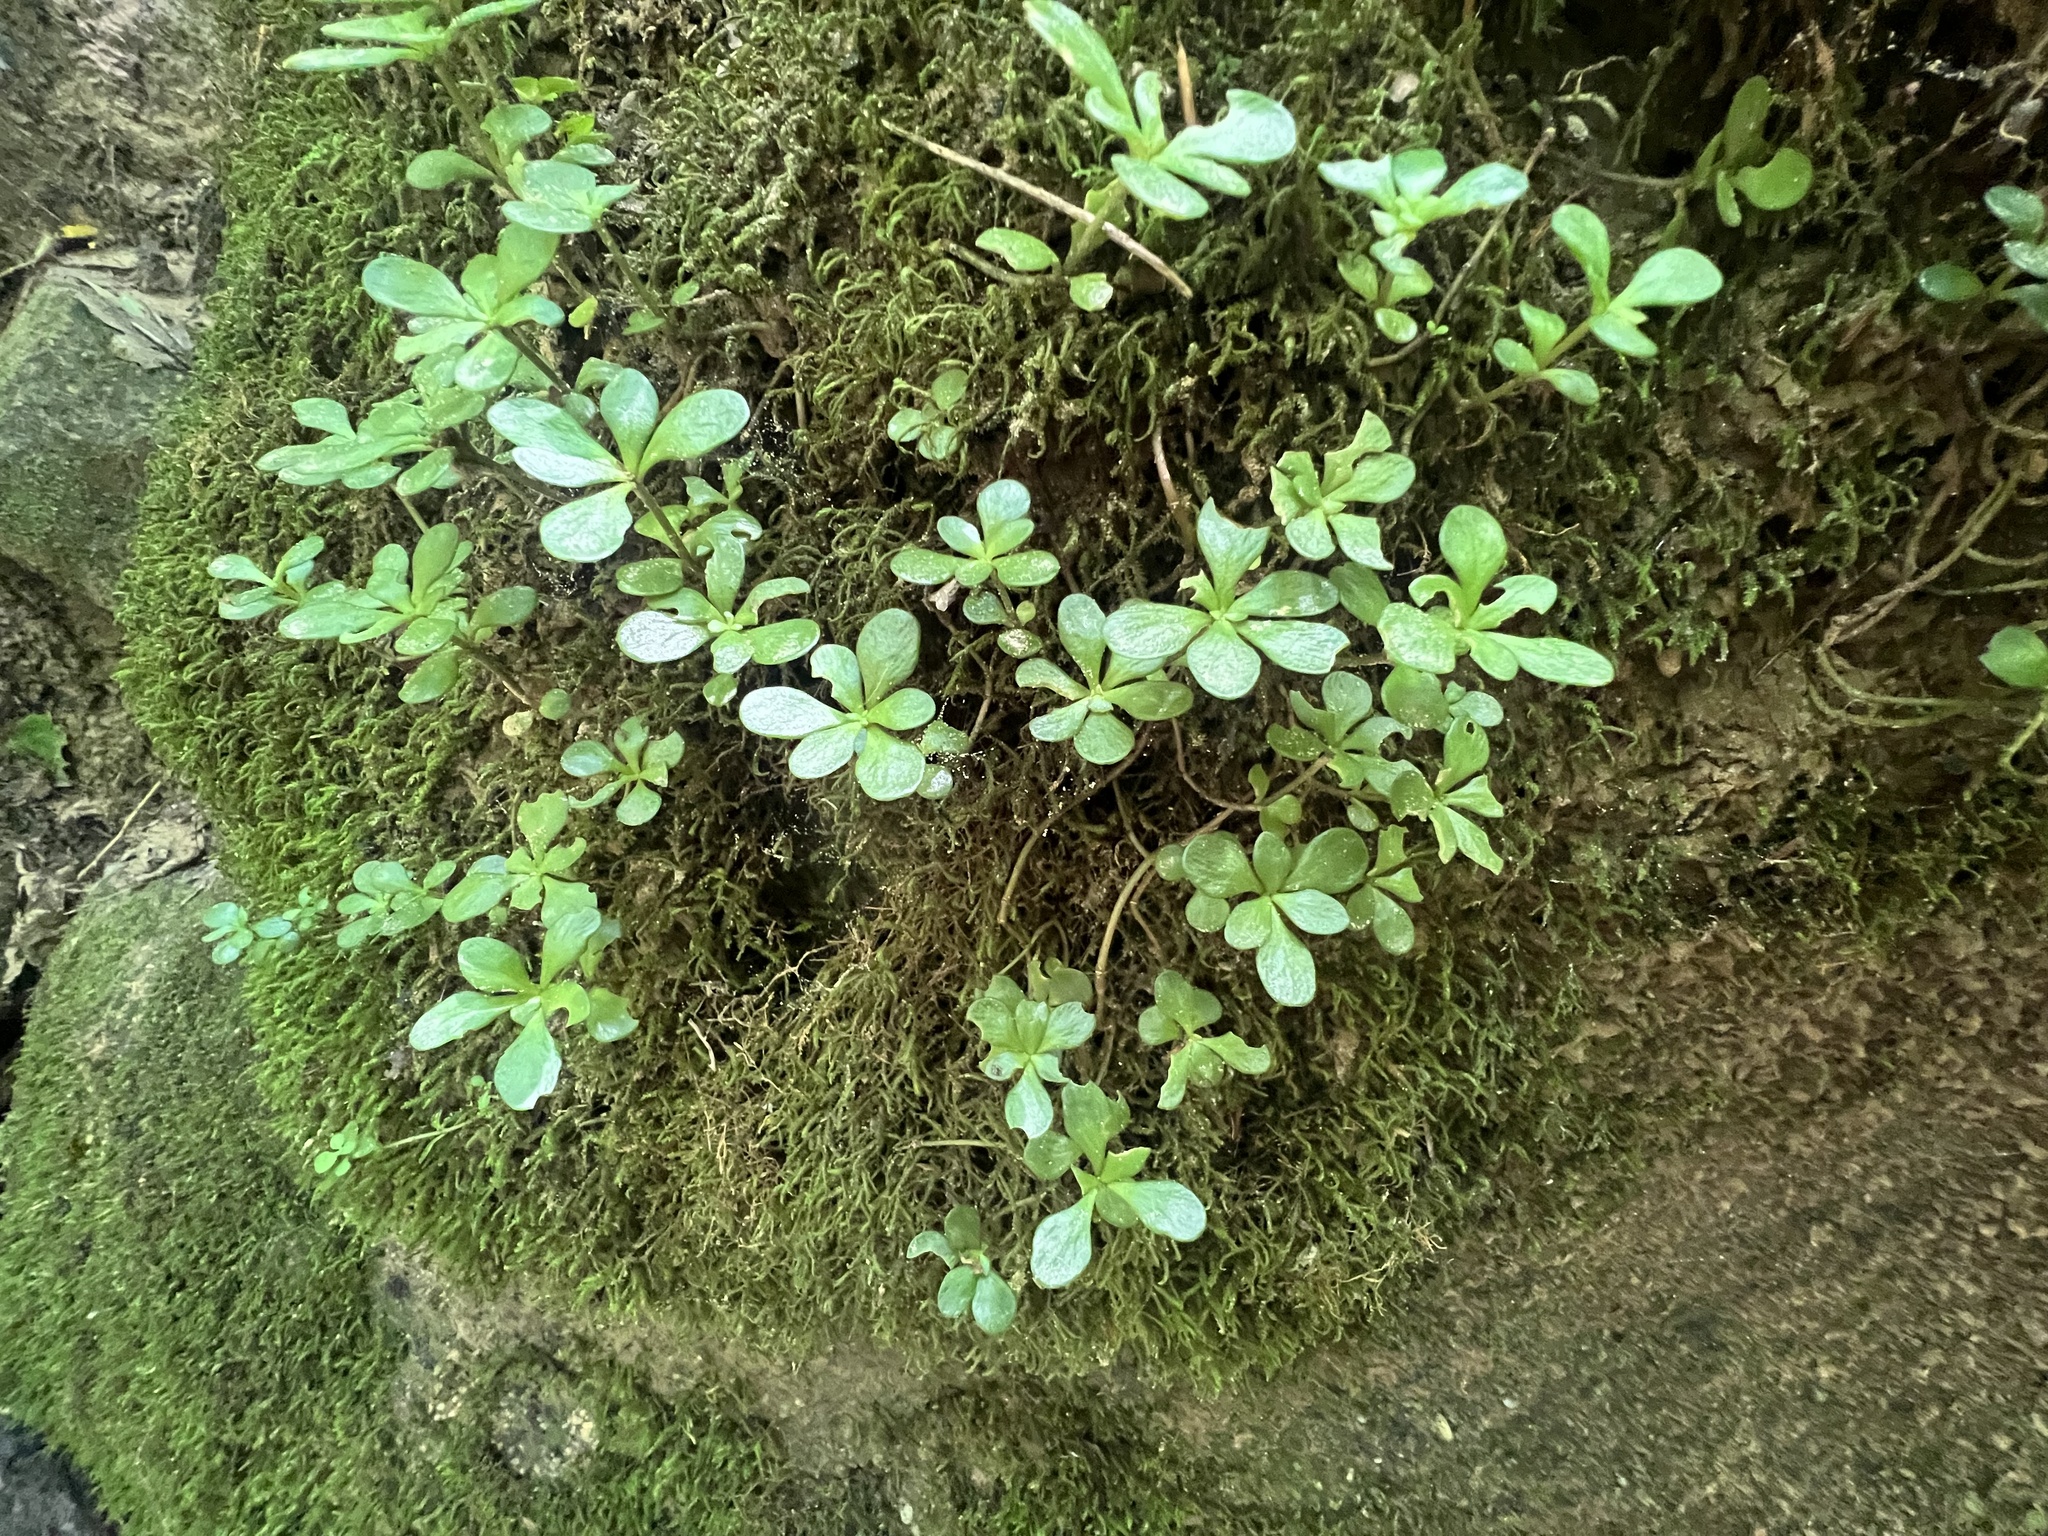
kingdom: Plantae
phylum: Tracheophyta
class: Magnoliopsida
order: Saxifragales
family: Crassulaceae
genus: Sedum
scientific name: Sedum ternatum
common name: Wild stonecrop
